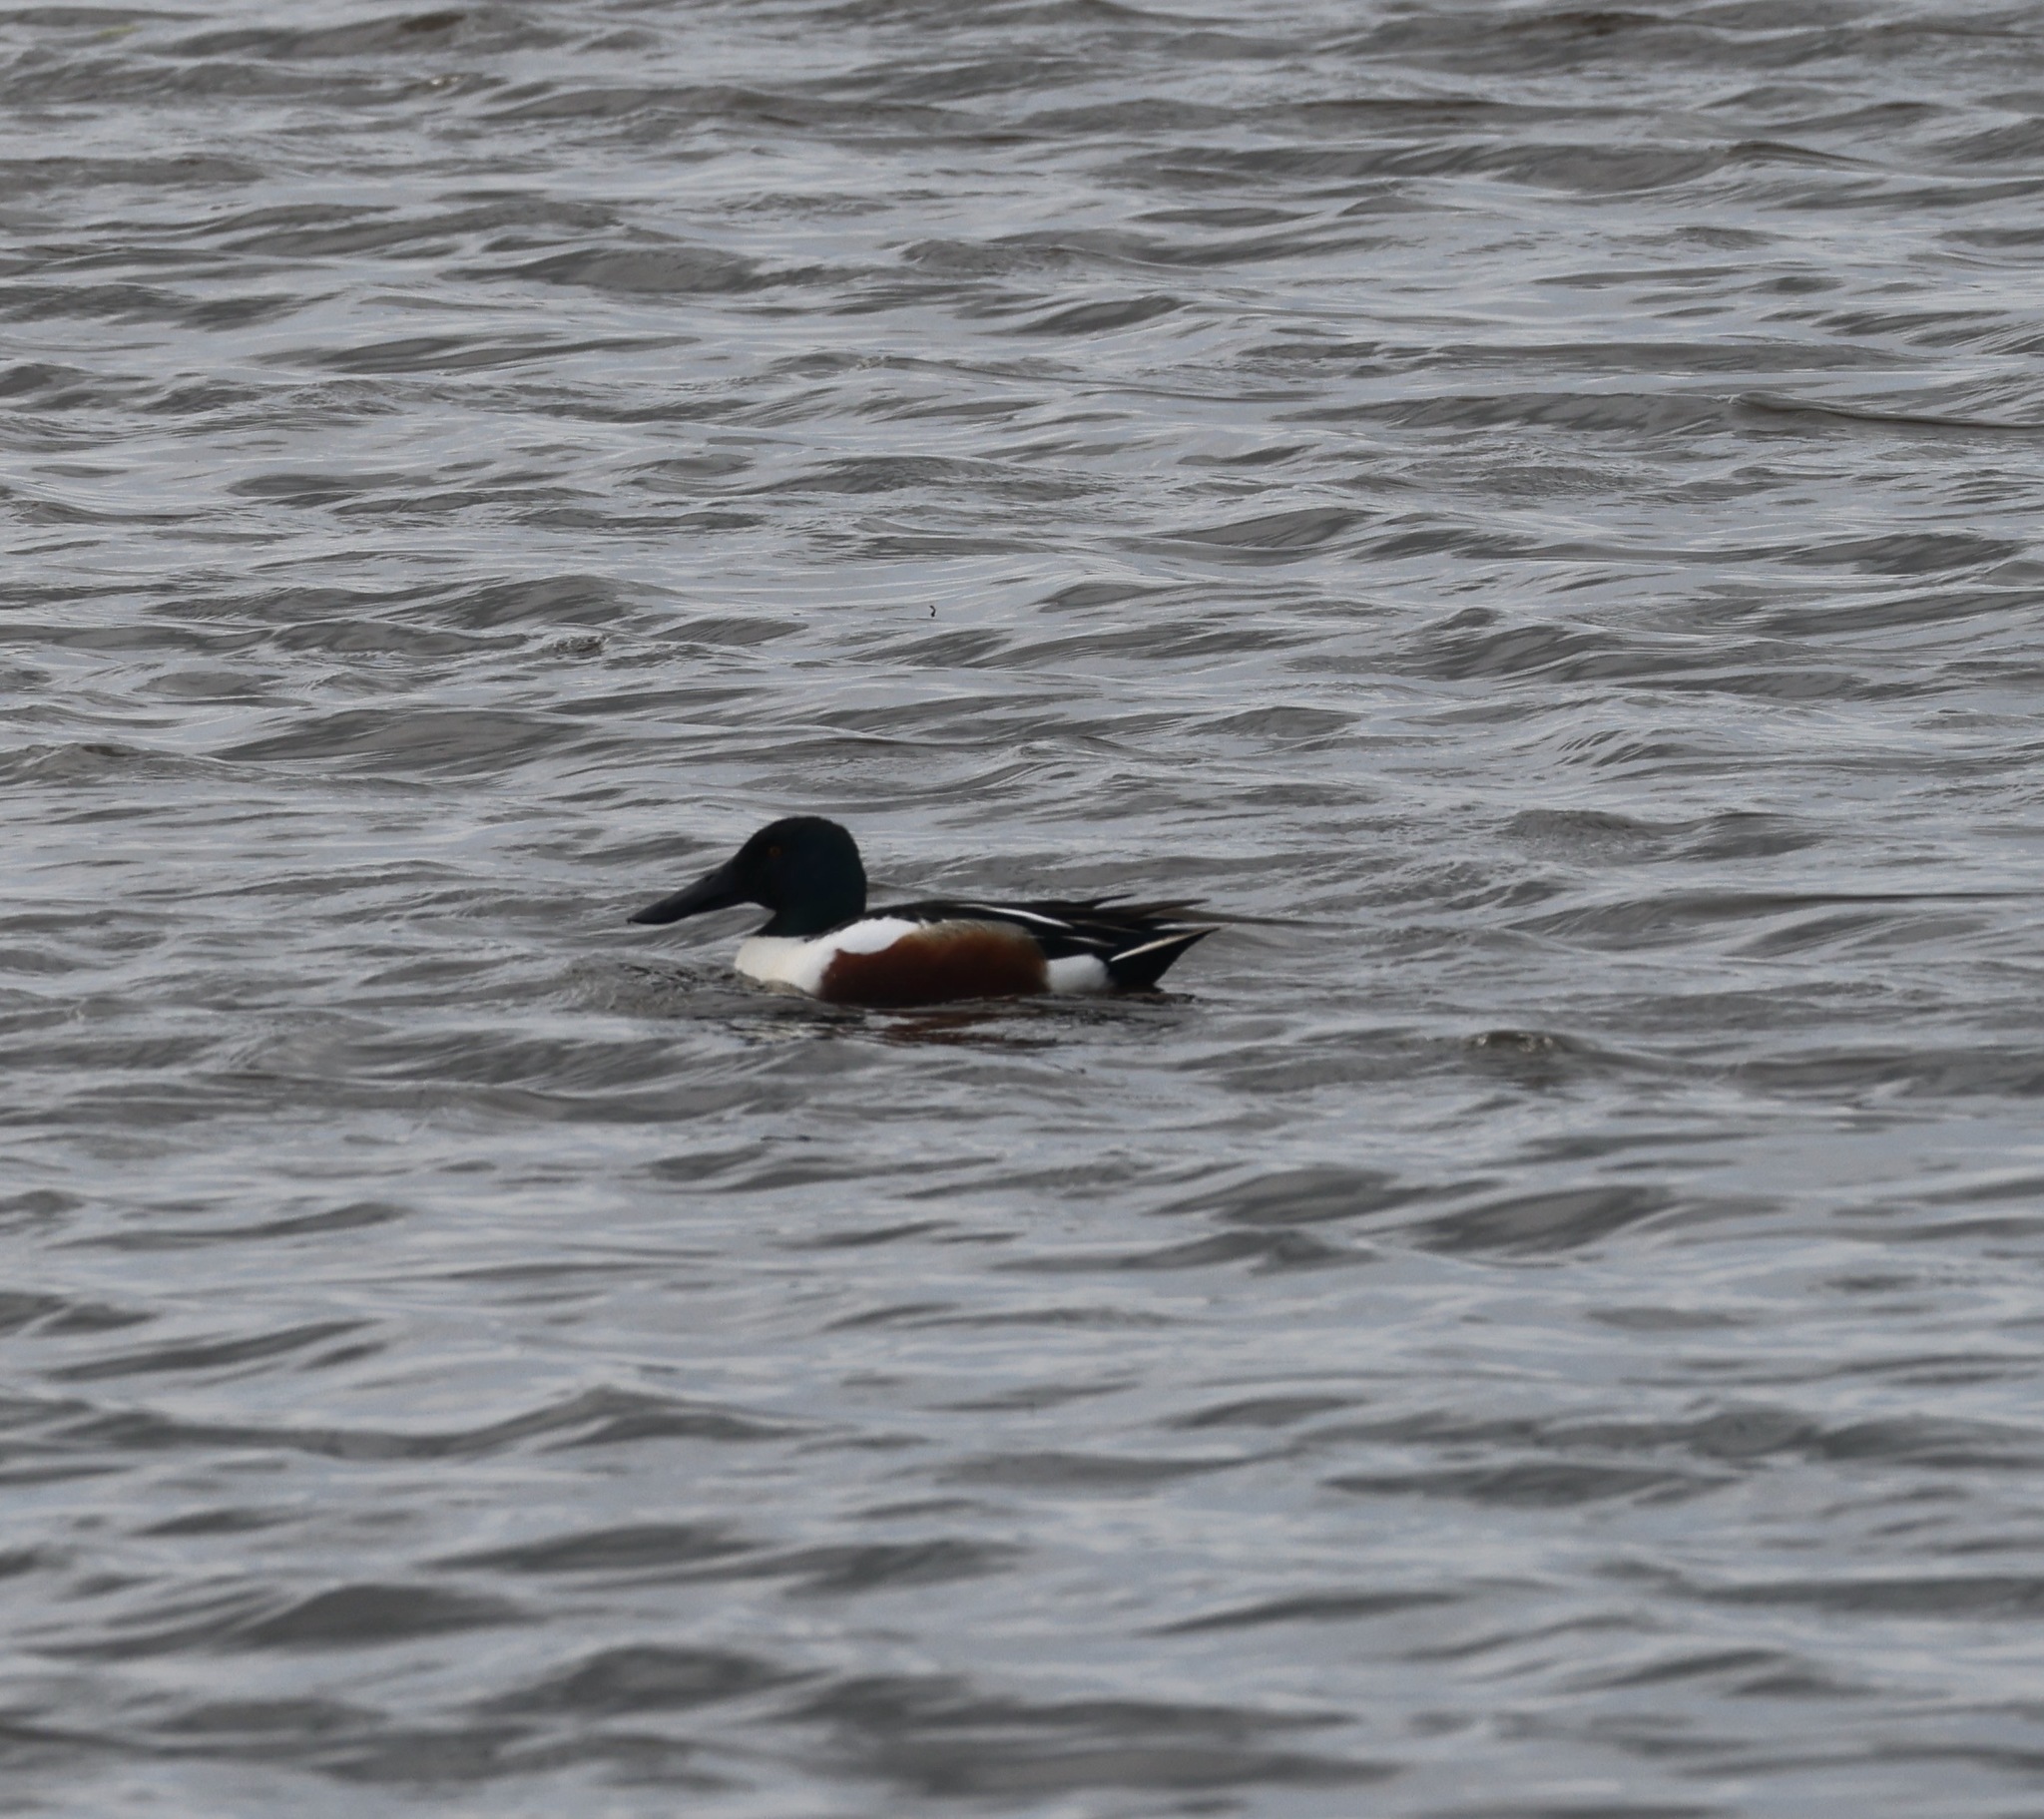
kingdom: Animalia
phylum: Chordata
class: Aves
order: Anseriformes
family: Anatidae
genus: Spatula
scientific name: Spatula clypeata
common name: Northern shoveler
